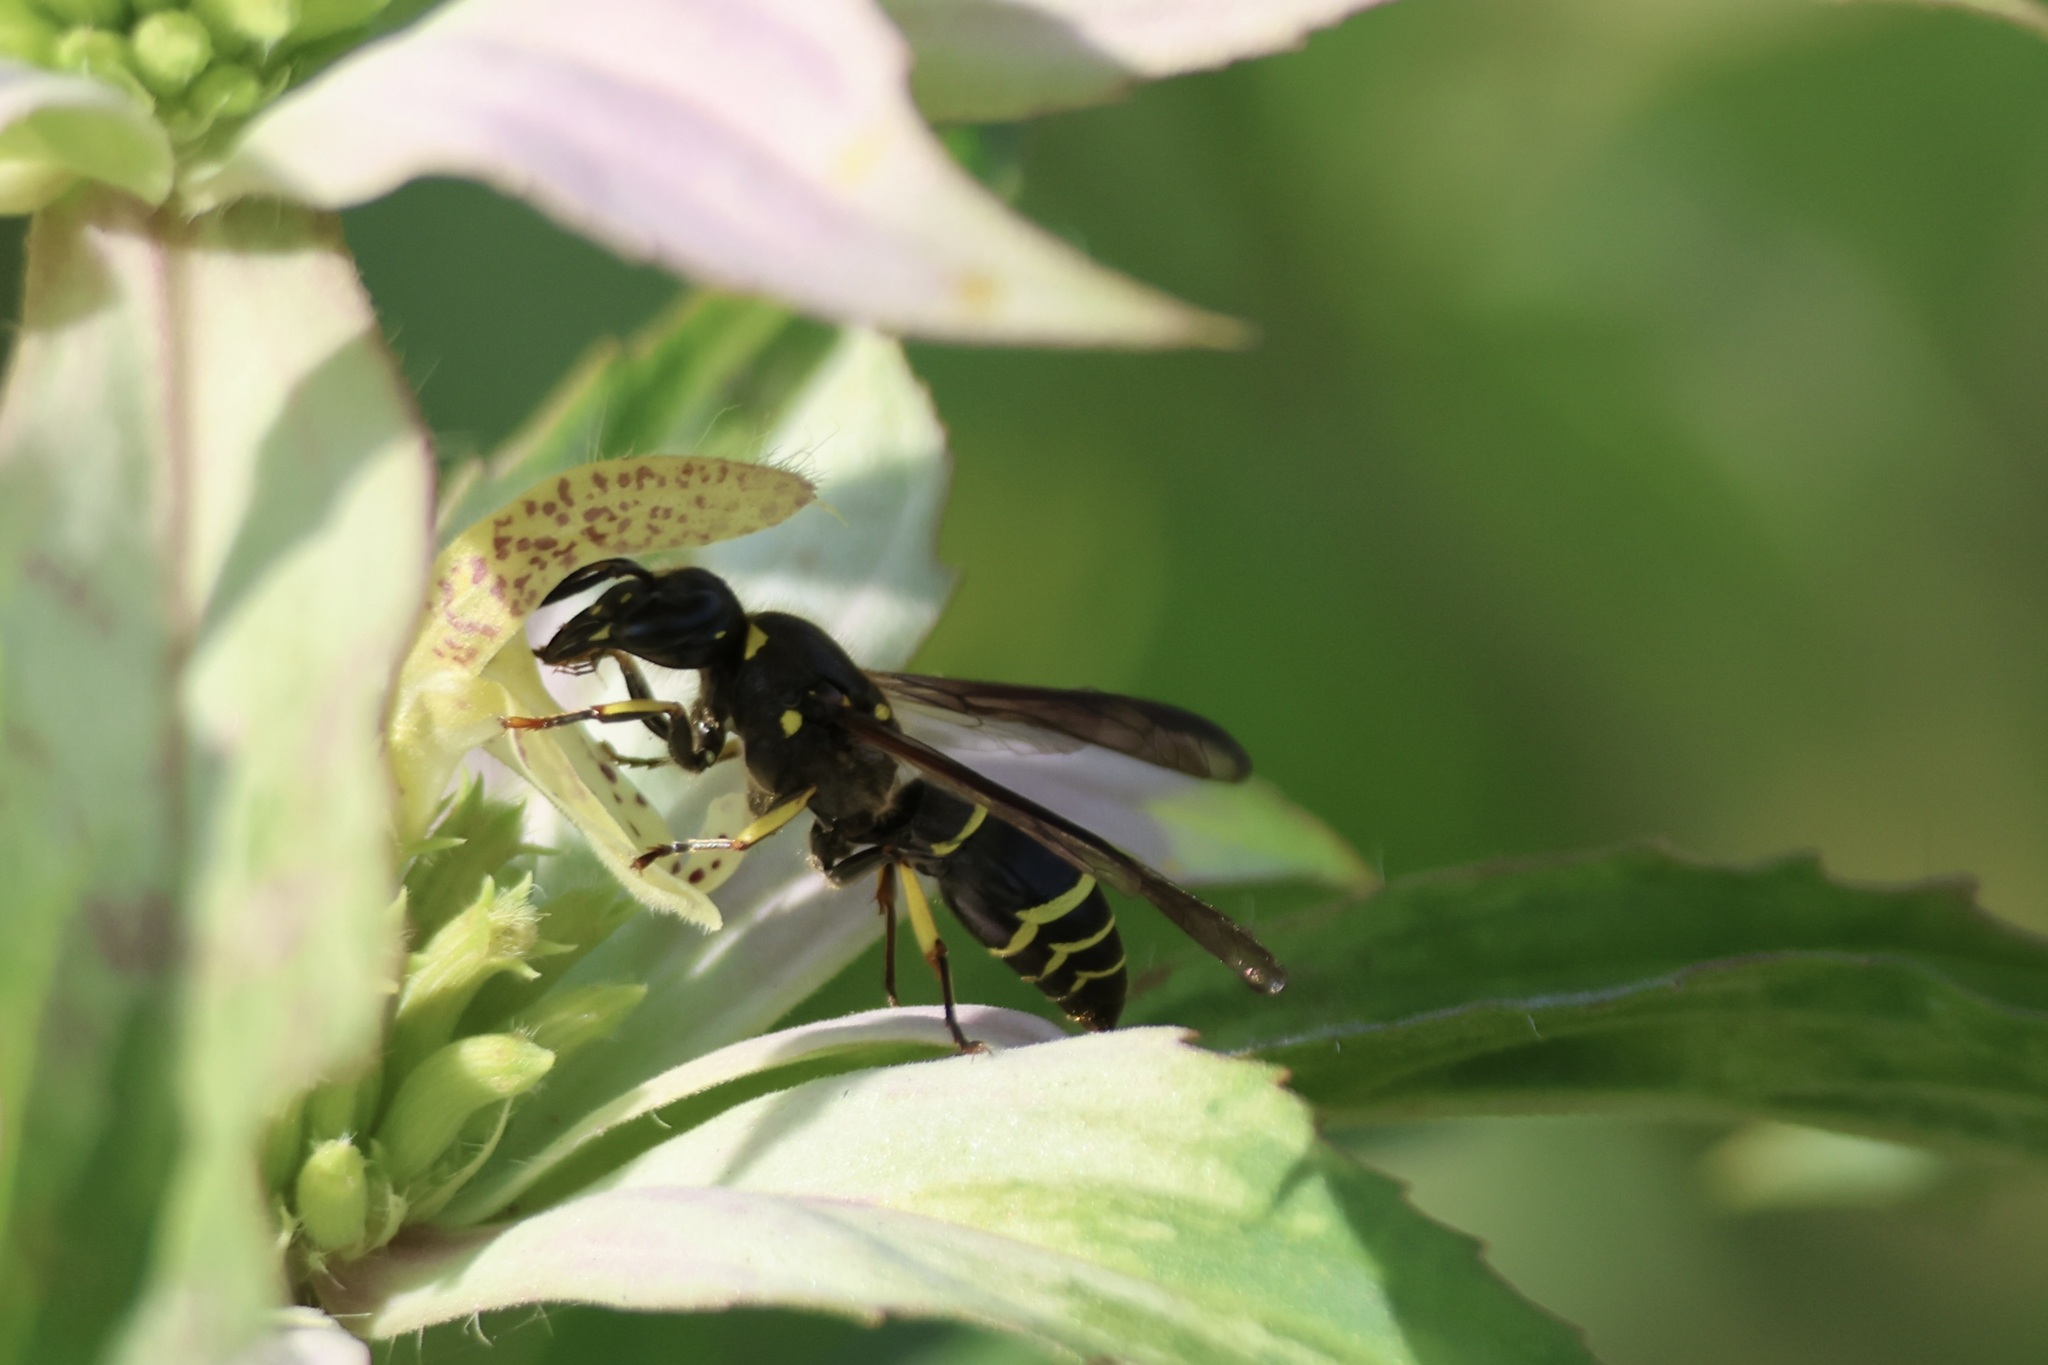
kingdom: Animalia
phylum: Arthropoda
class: Insecta
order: Hymenoptera
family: Vespidae
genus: Ancistrocerus
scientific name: Ancistrocerus
